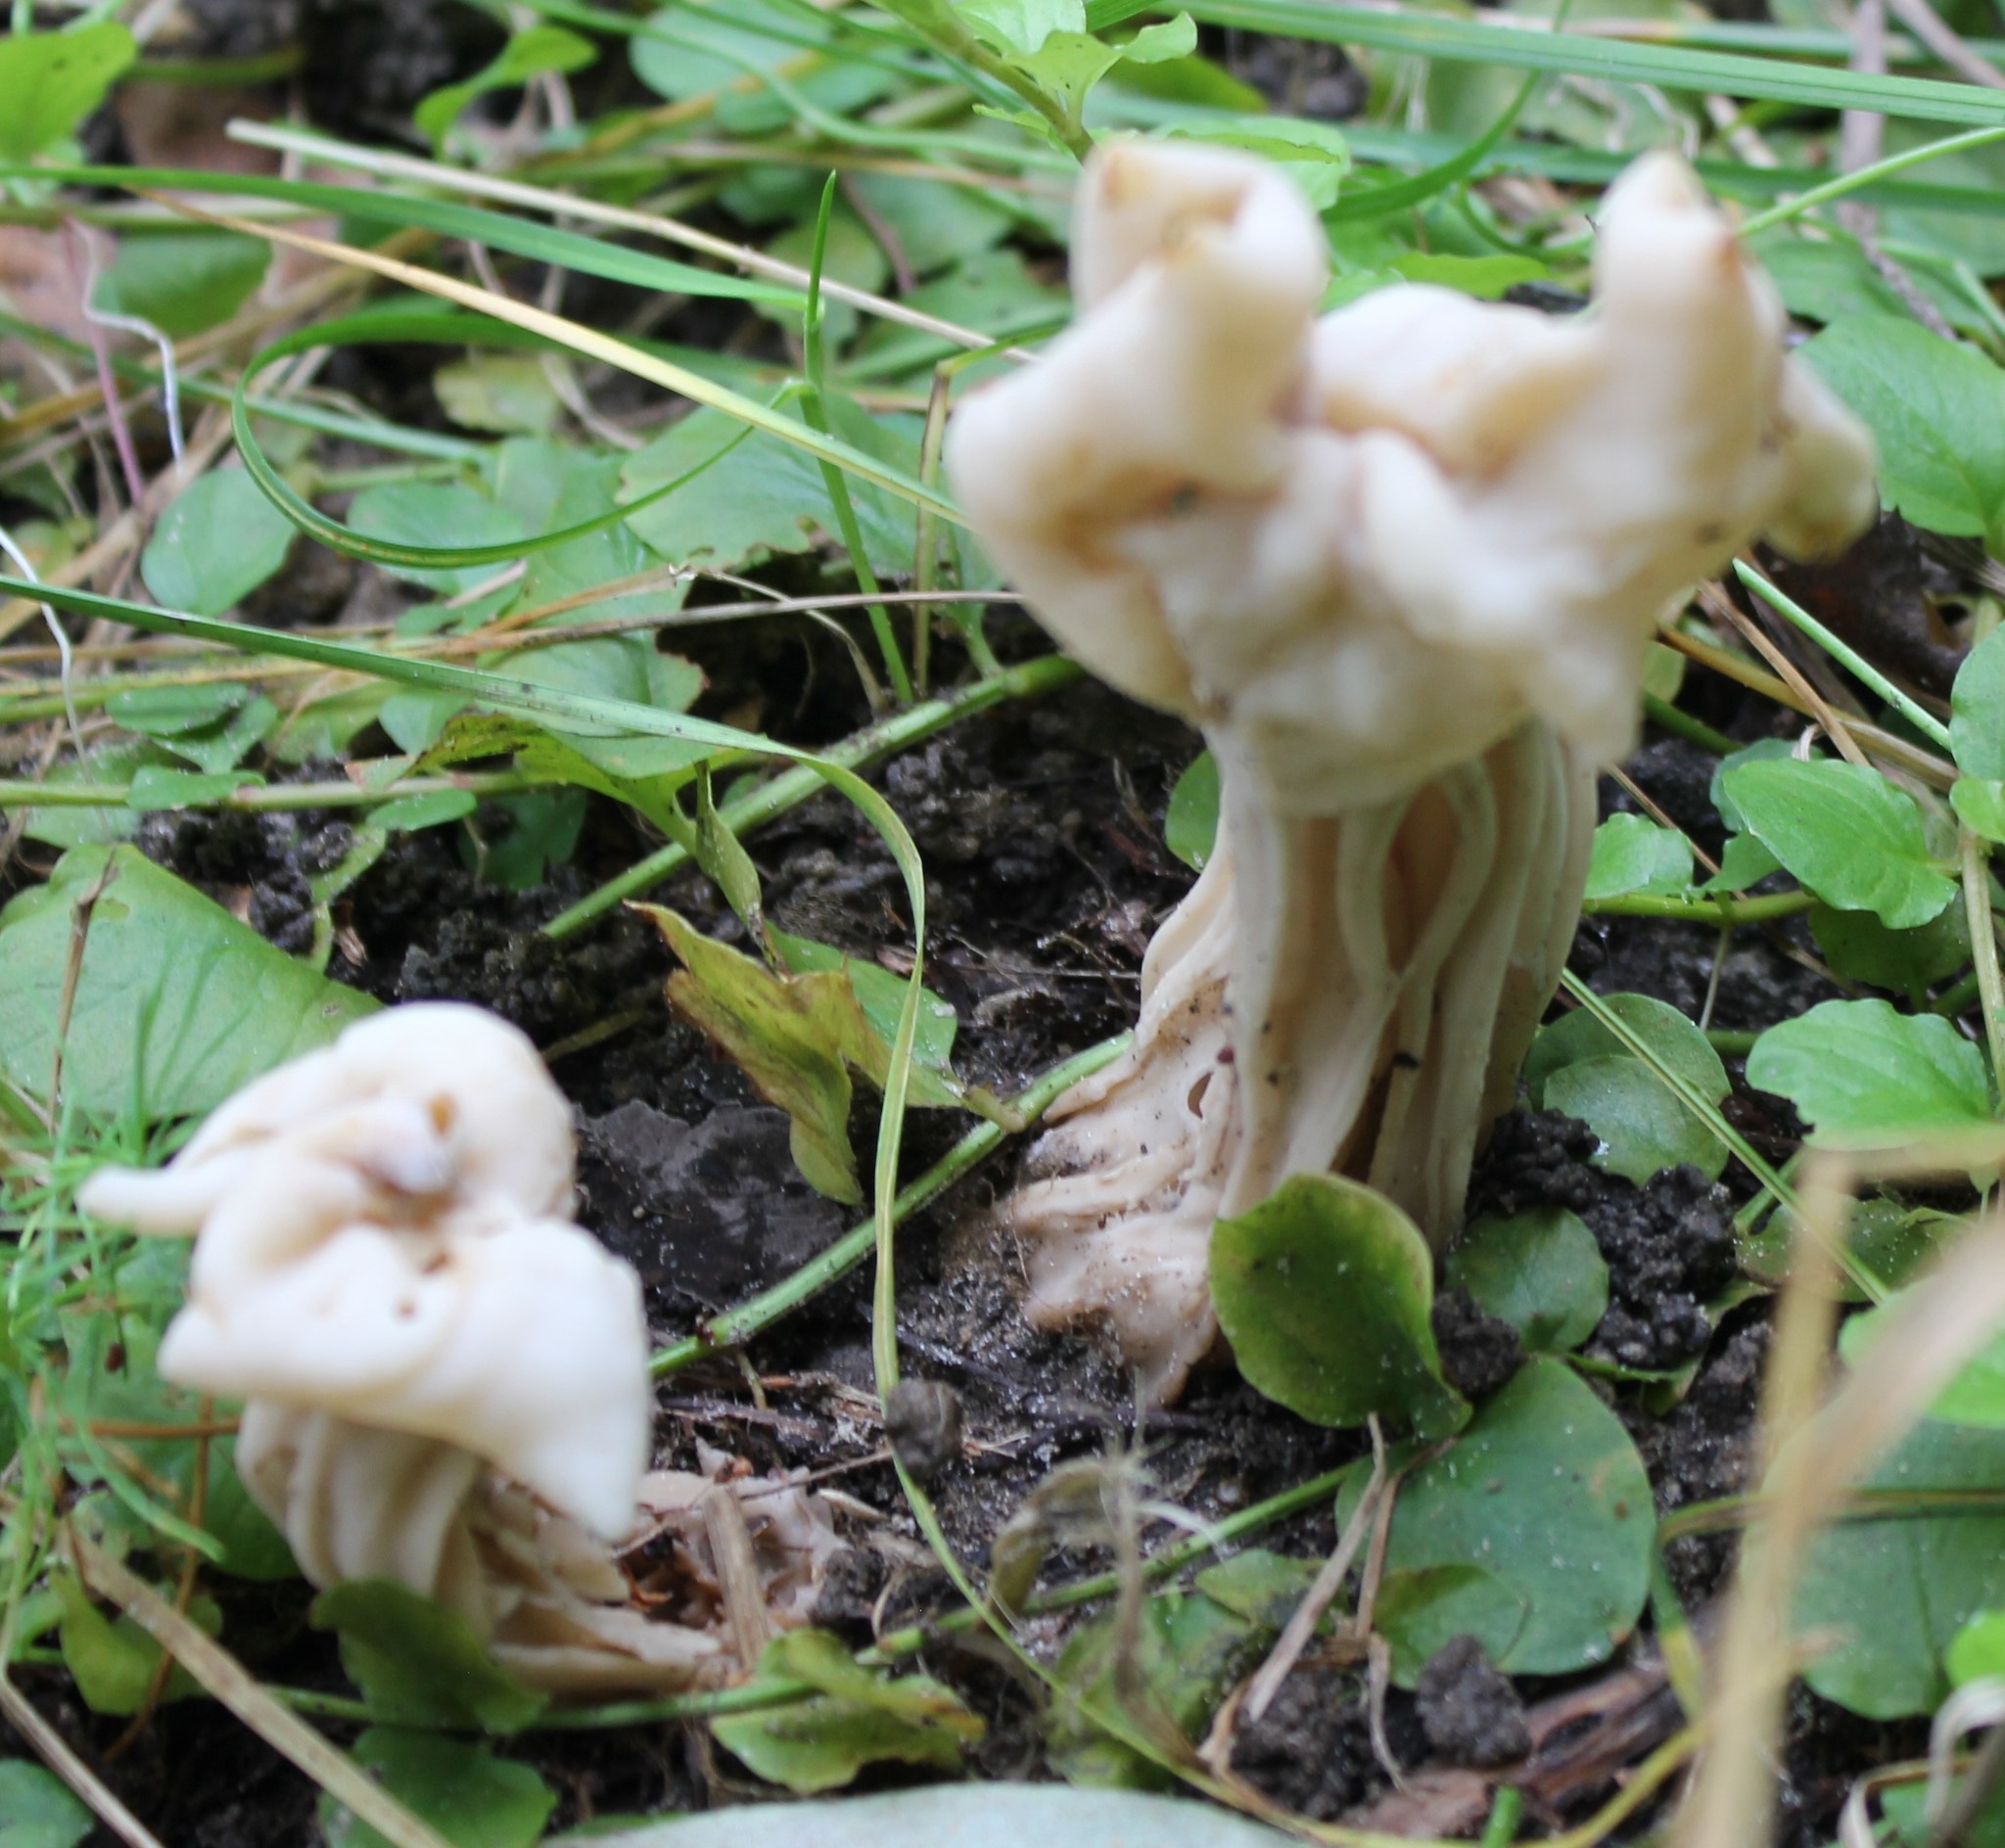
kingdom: Fungi
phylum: Ascomycota
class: Pezizomycetes
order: Pezizales
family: Helvellaceae
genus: Helvella
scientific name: Helvella crispa
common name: White saddle
